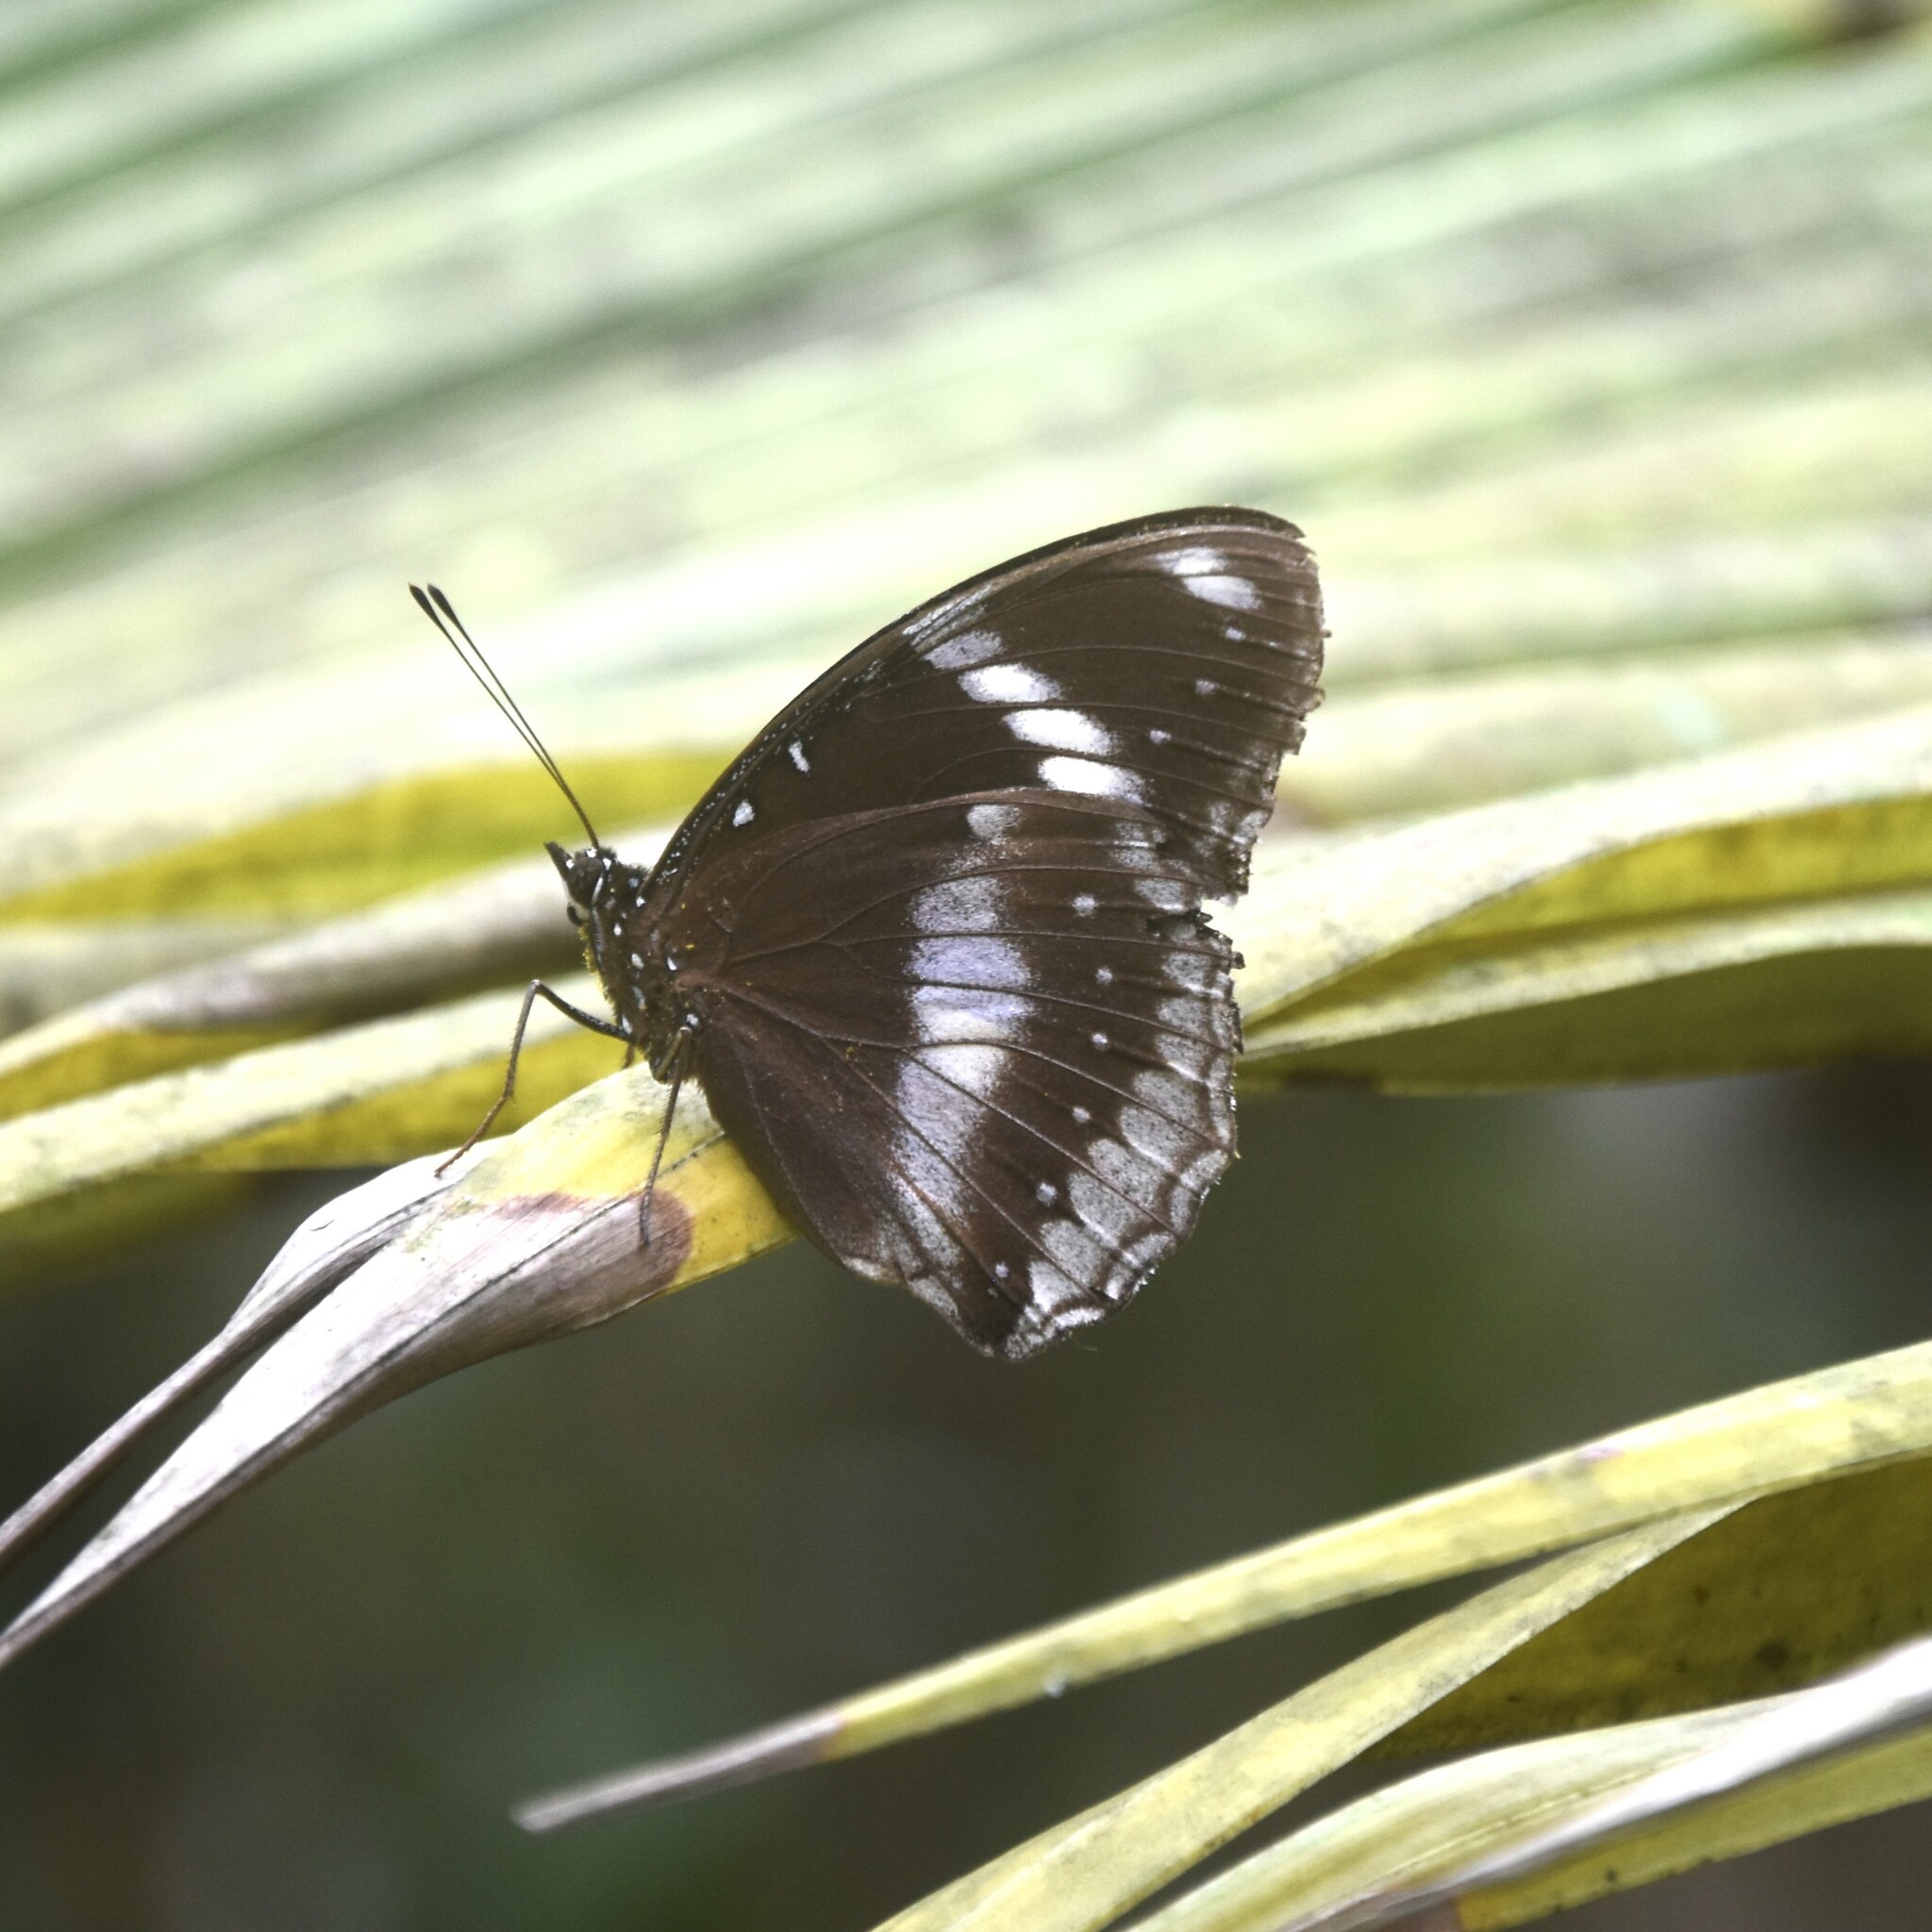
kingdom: Animalia
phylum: Arthropoda
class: Insecta
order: Lepidoptera
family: Nymphalidae
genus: Hypolimnas
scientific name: Hypolimnas bolina
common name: Great eggfly
